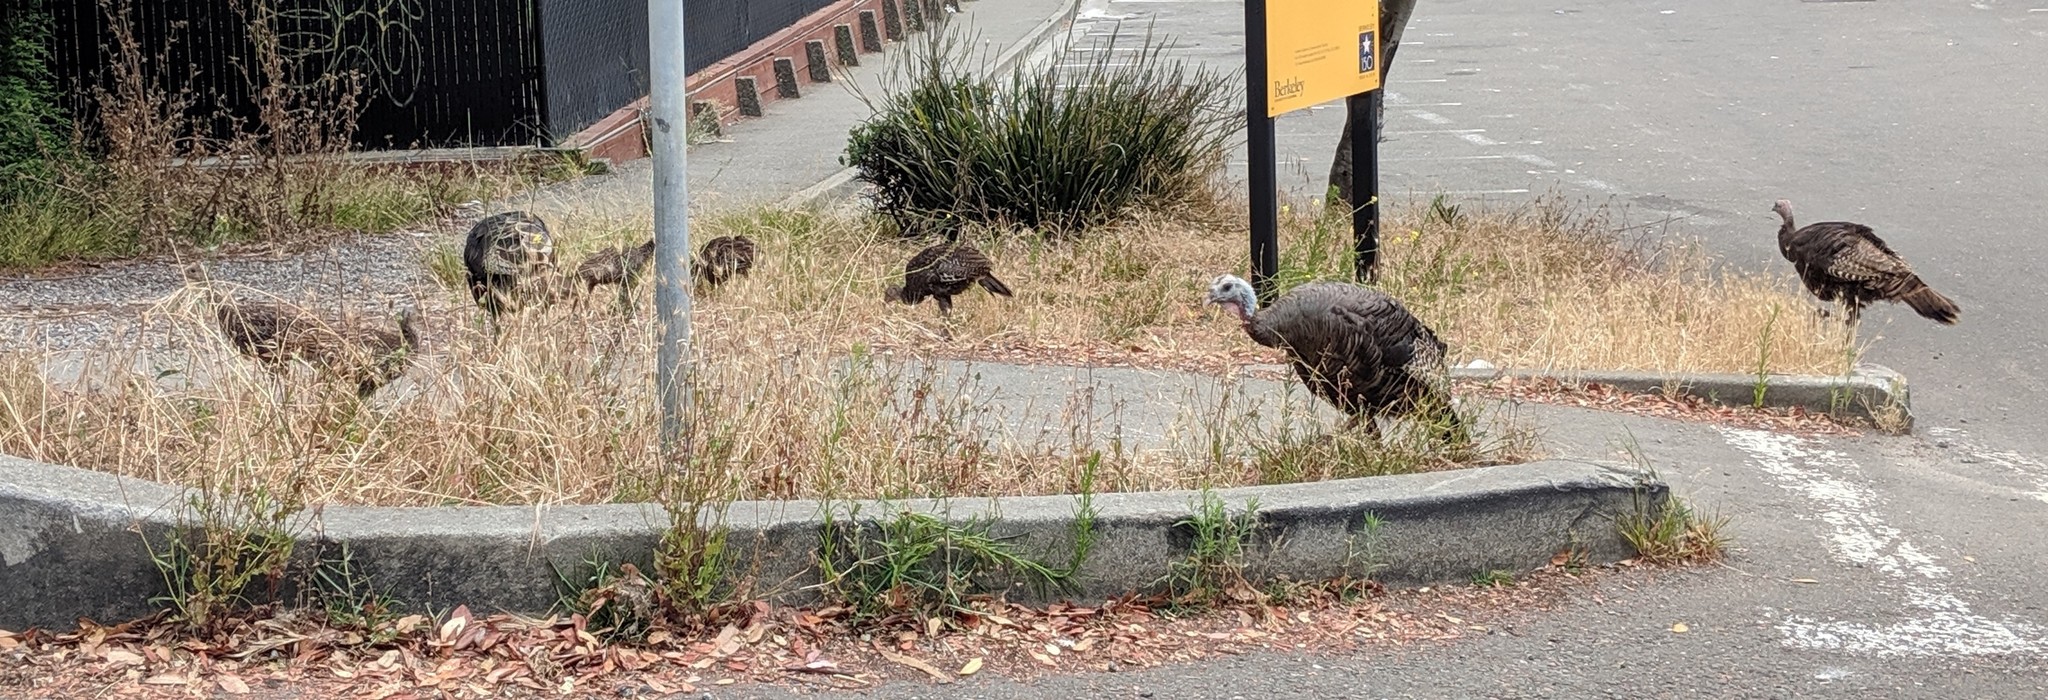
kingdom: Animalia
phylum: Chordata
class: Aves
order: Galliformes
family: Phasianidae
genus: Meleagris
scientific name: Meleagris gallopavo
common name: Wild turkey
